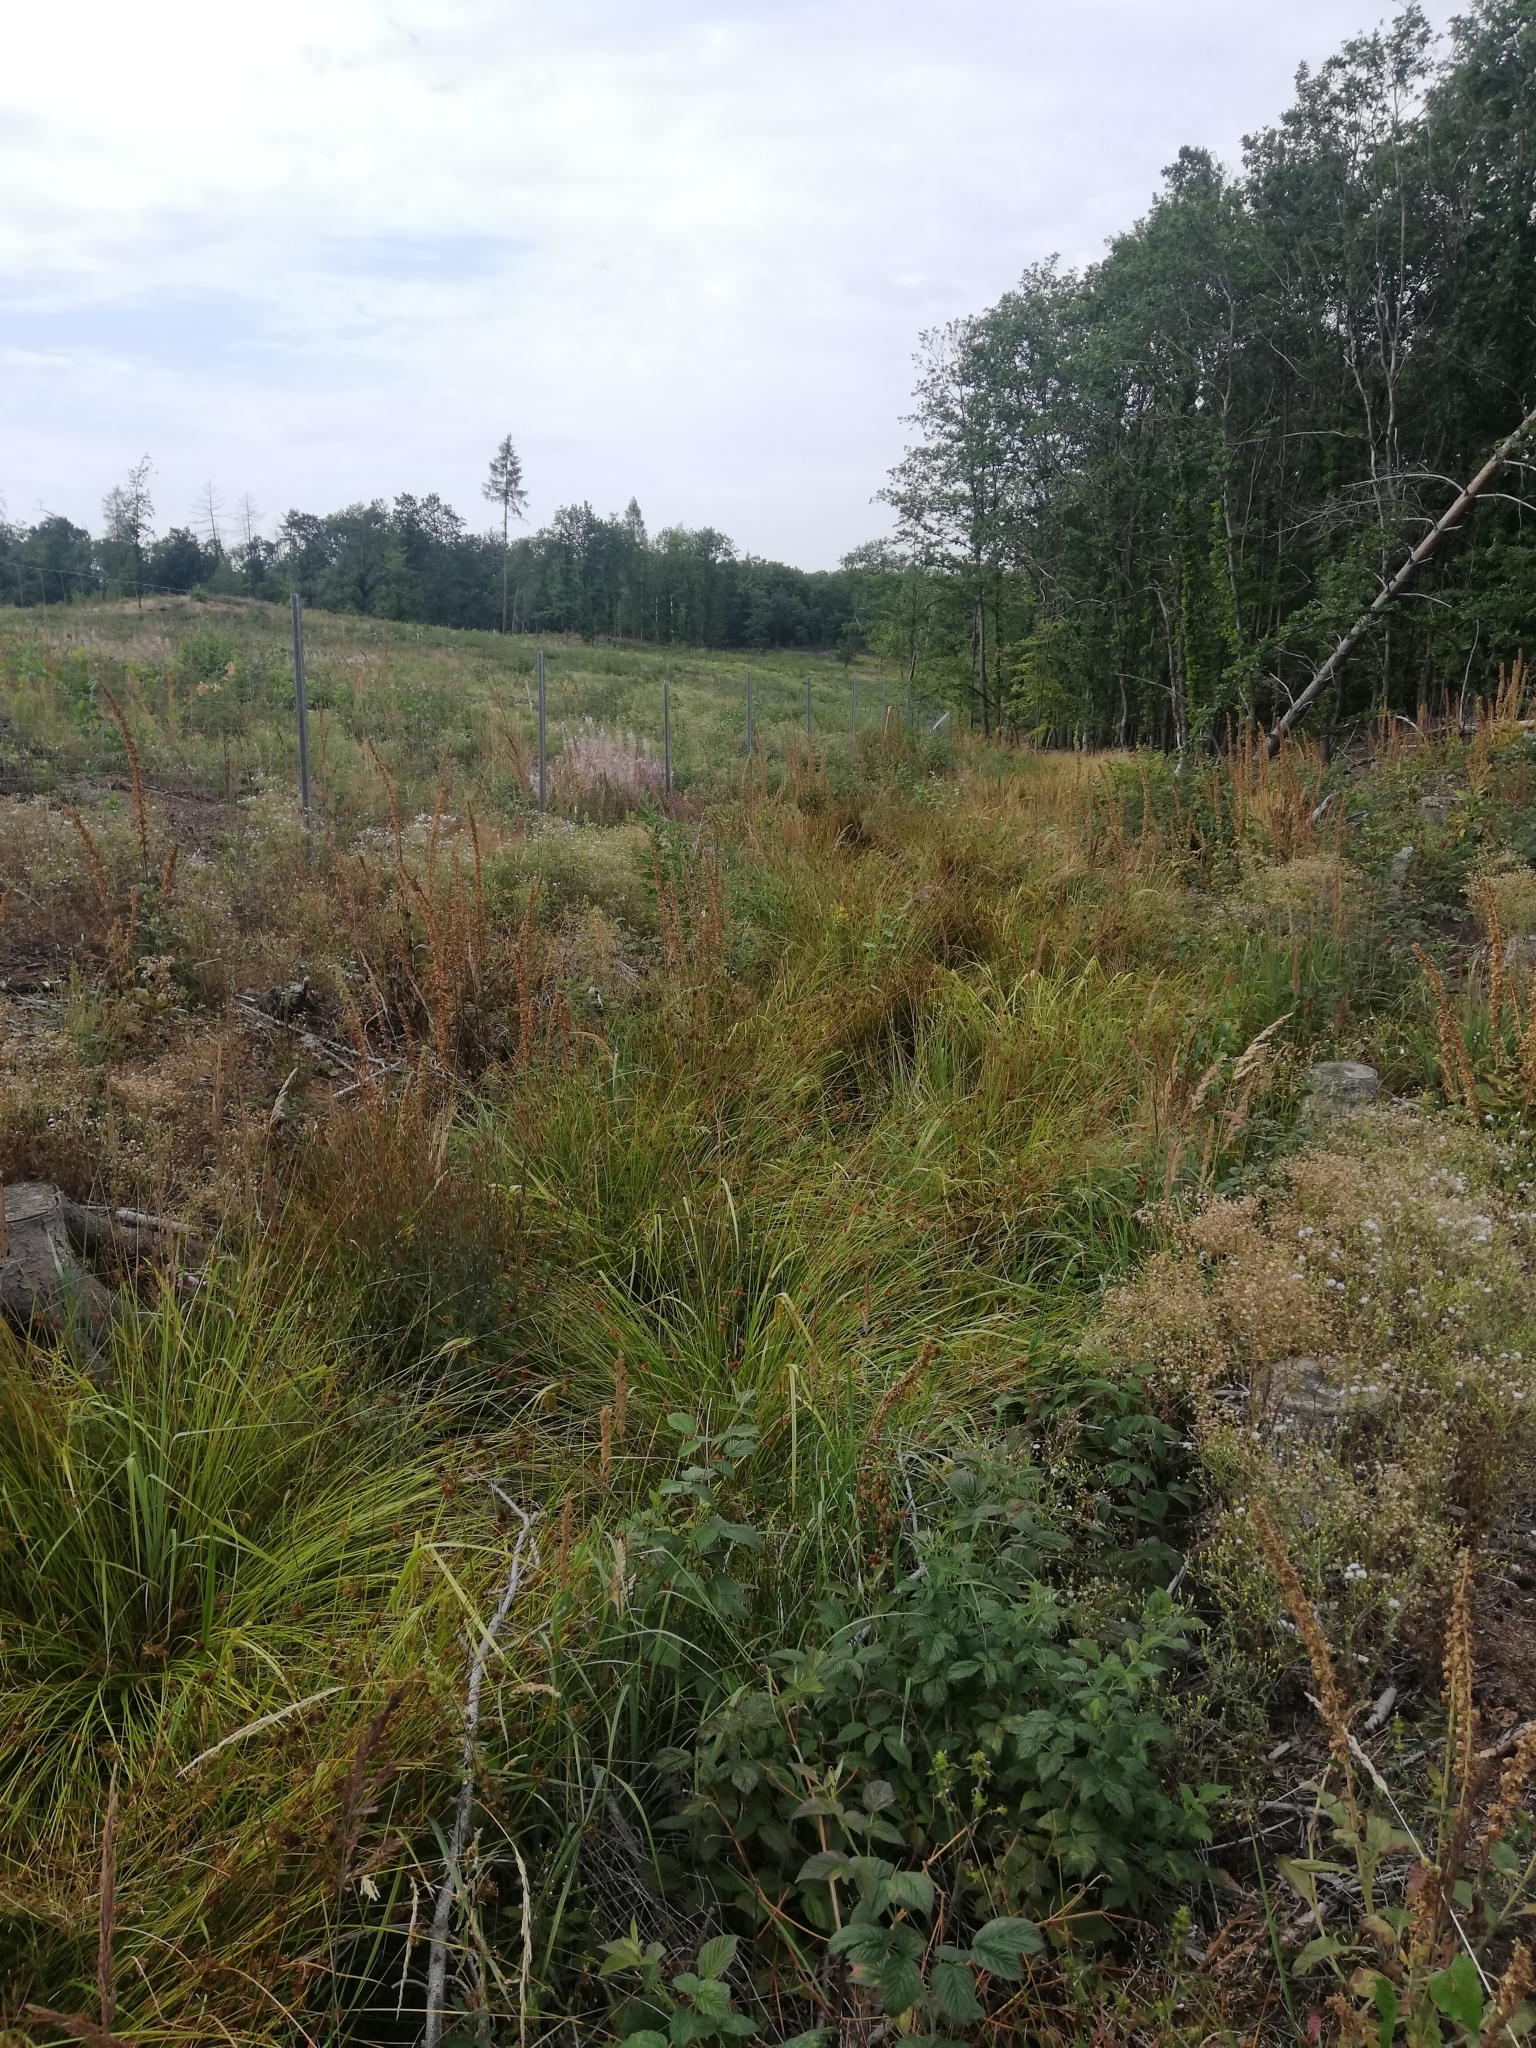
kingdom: Plantae
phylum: Tracheophyta
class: Liliopsida
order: Poales
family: Juncaceae
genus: Juncus
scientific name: Juncus effusus
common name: Soft rush
